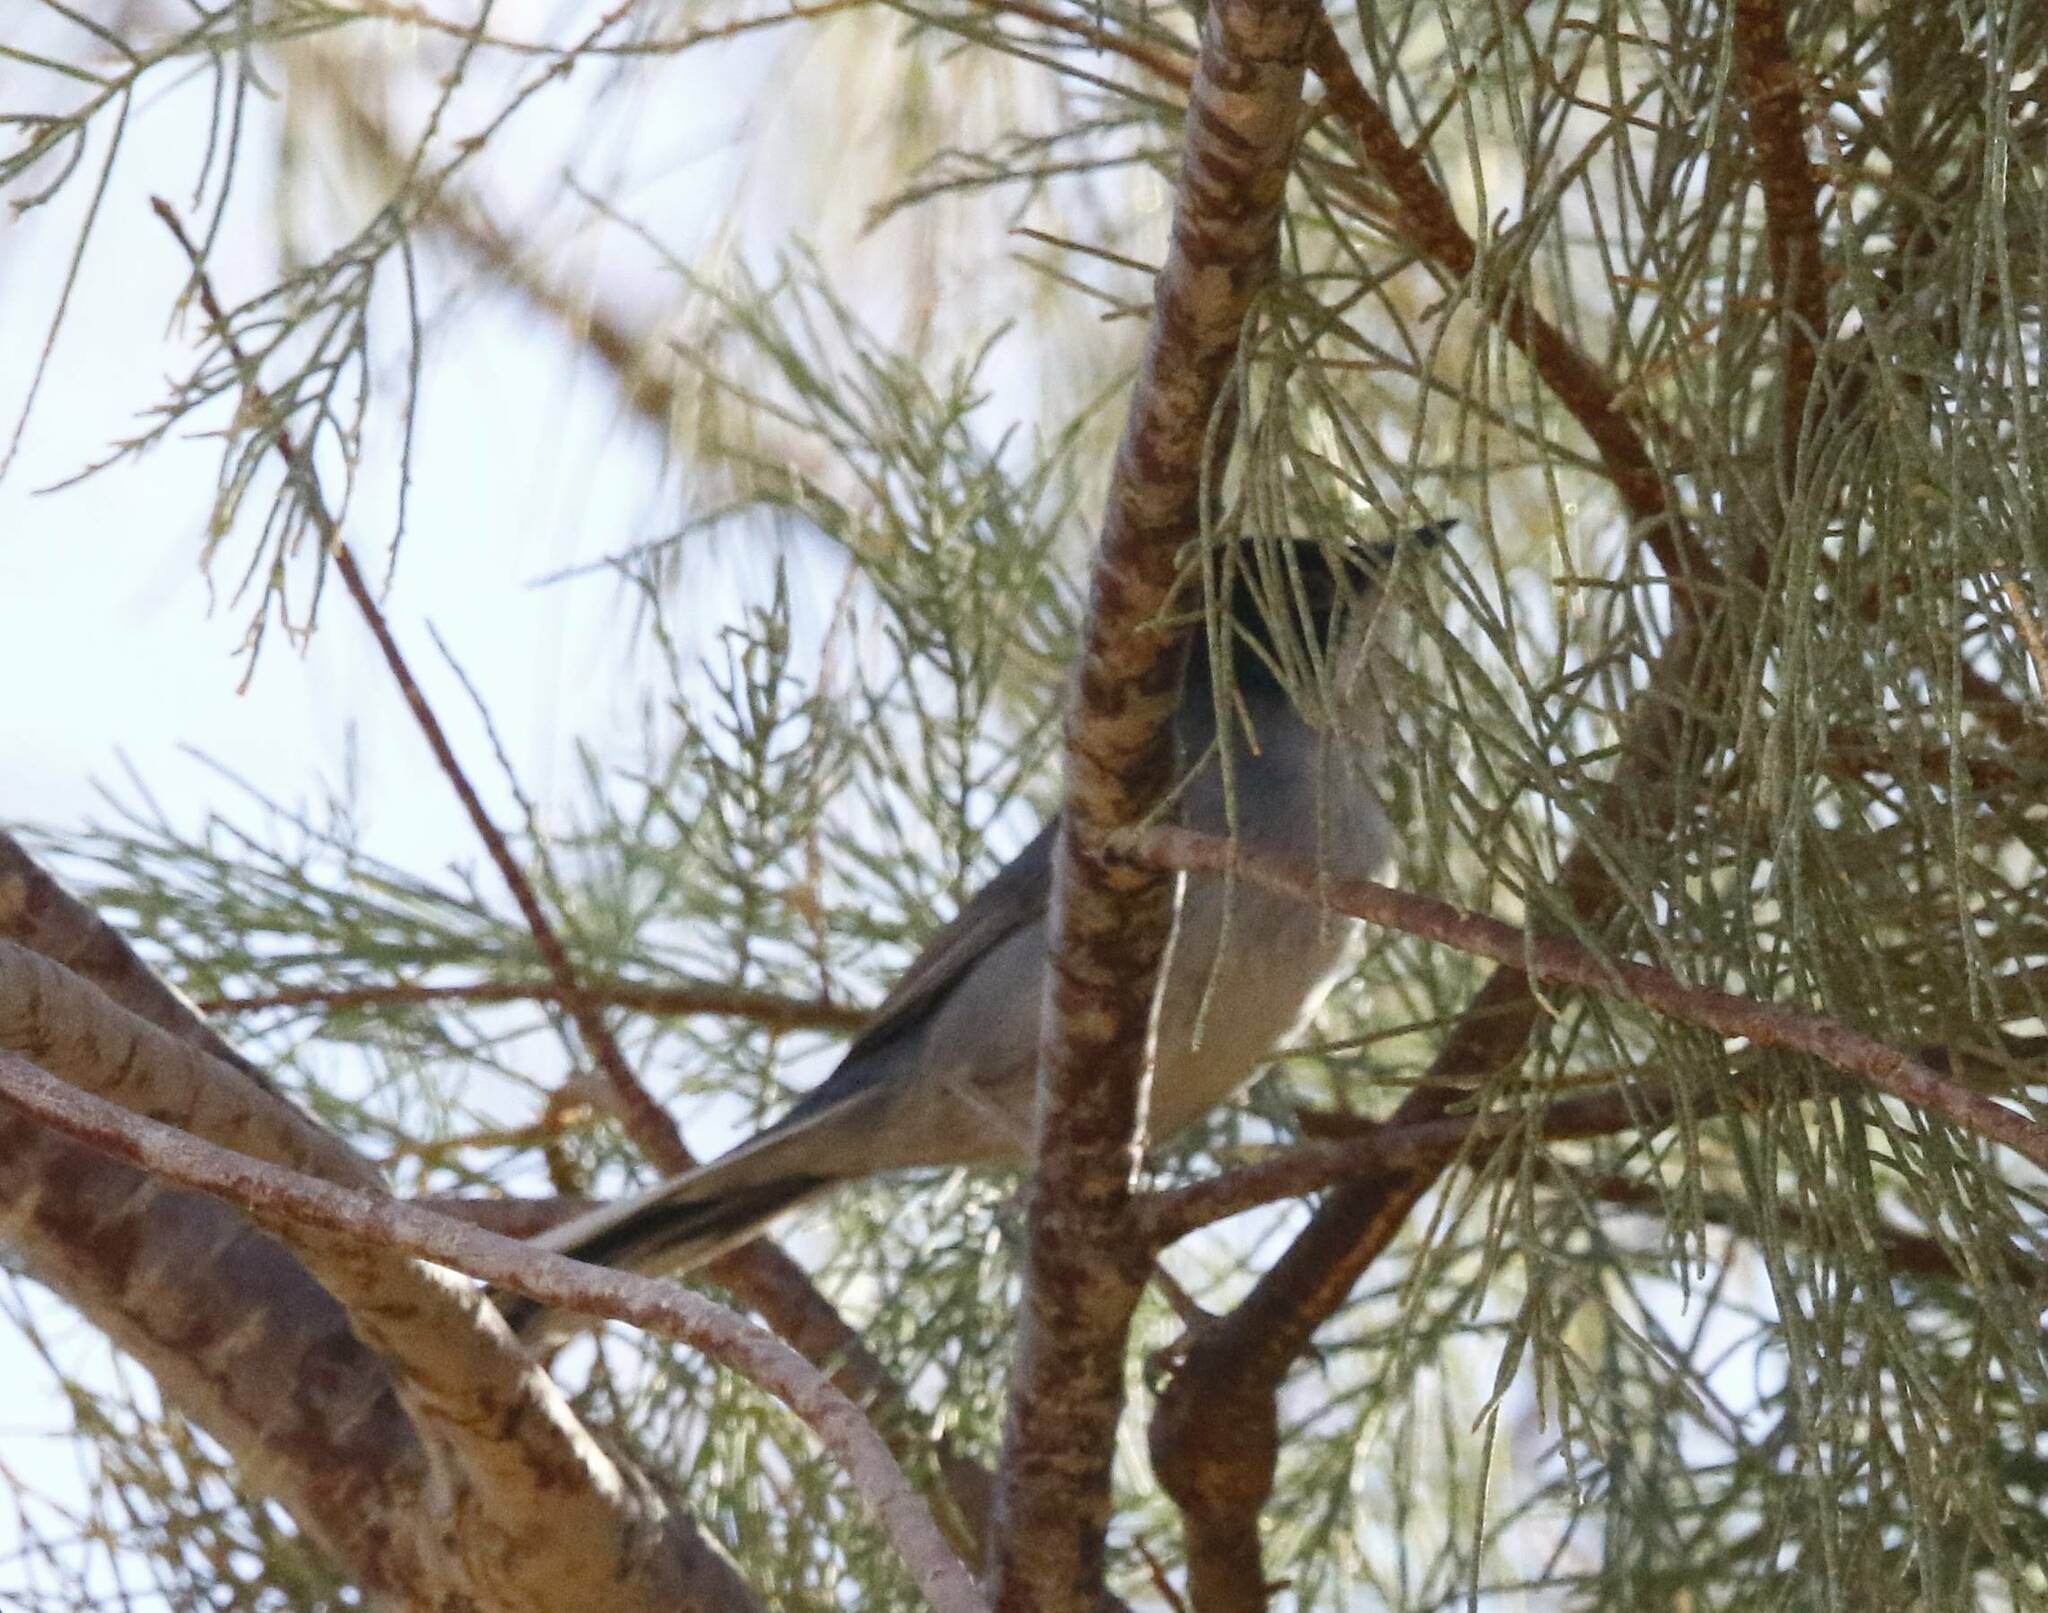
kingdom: Animalia
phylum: Chordata
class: Aves
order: Passeriformes
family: Sylviidae
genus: Curruca
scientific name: Curruca melanocephala
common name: Sardinian warbler
